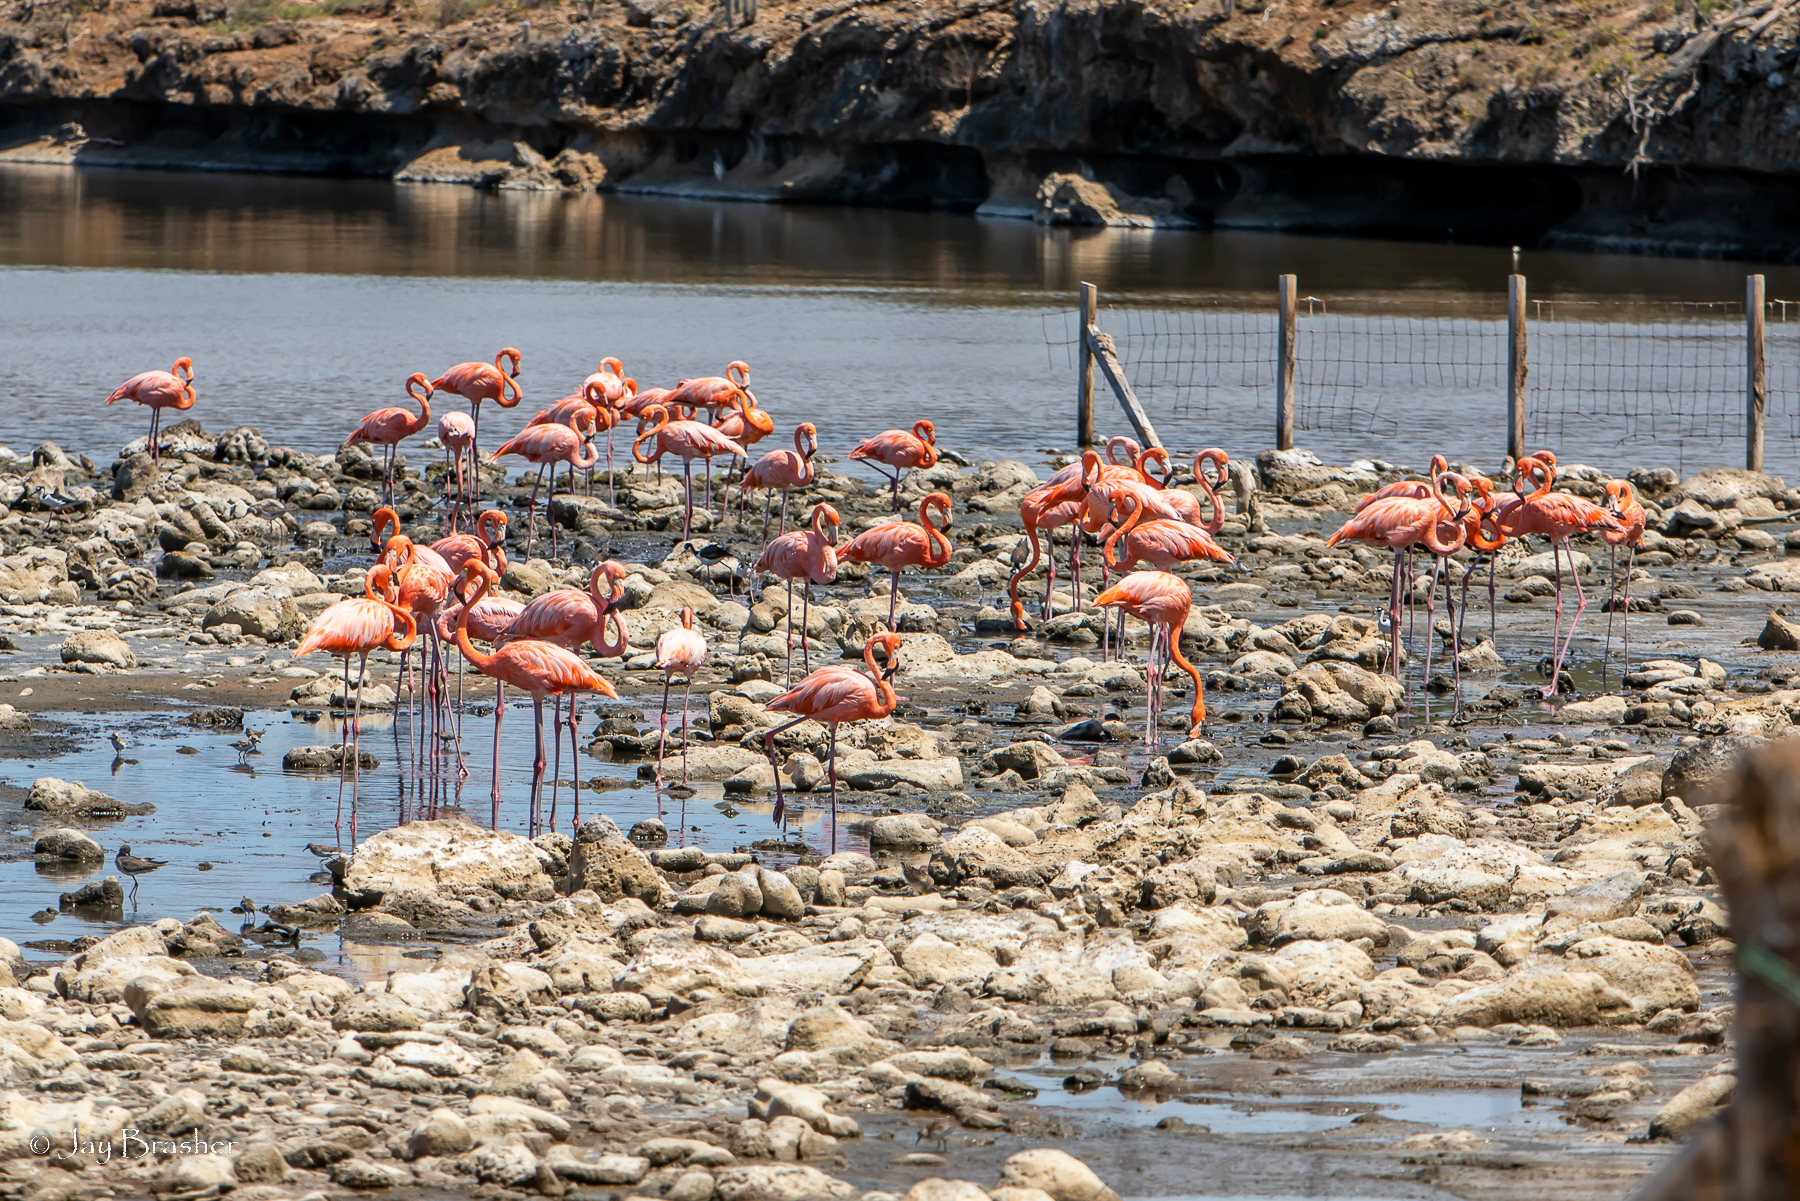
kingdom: Animalia
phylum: Chordata
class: Aves
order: Phoenicopteriformes
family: Phoenicopteridae
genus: Phoenicopterus
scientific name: Phoenicopterus ruber
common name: American flamingo
